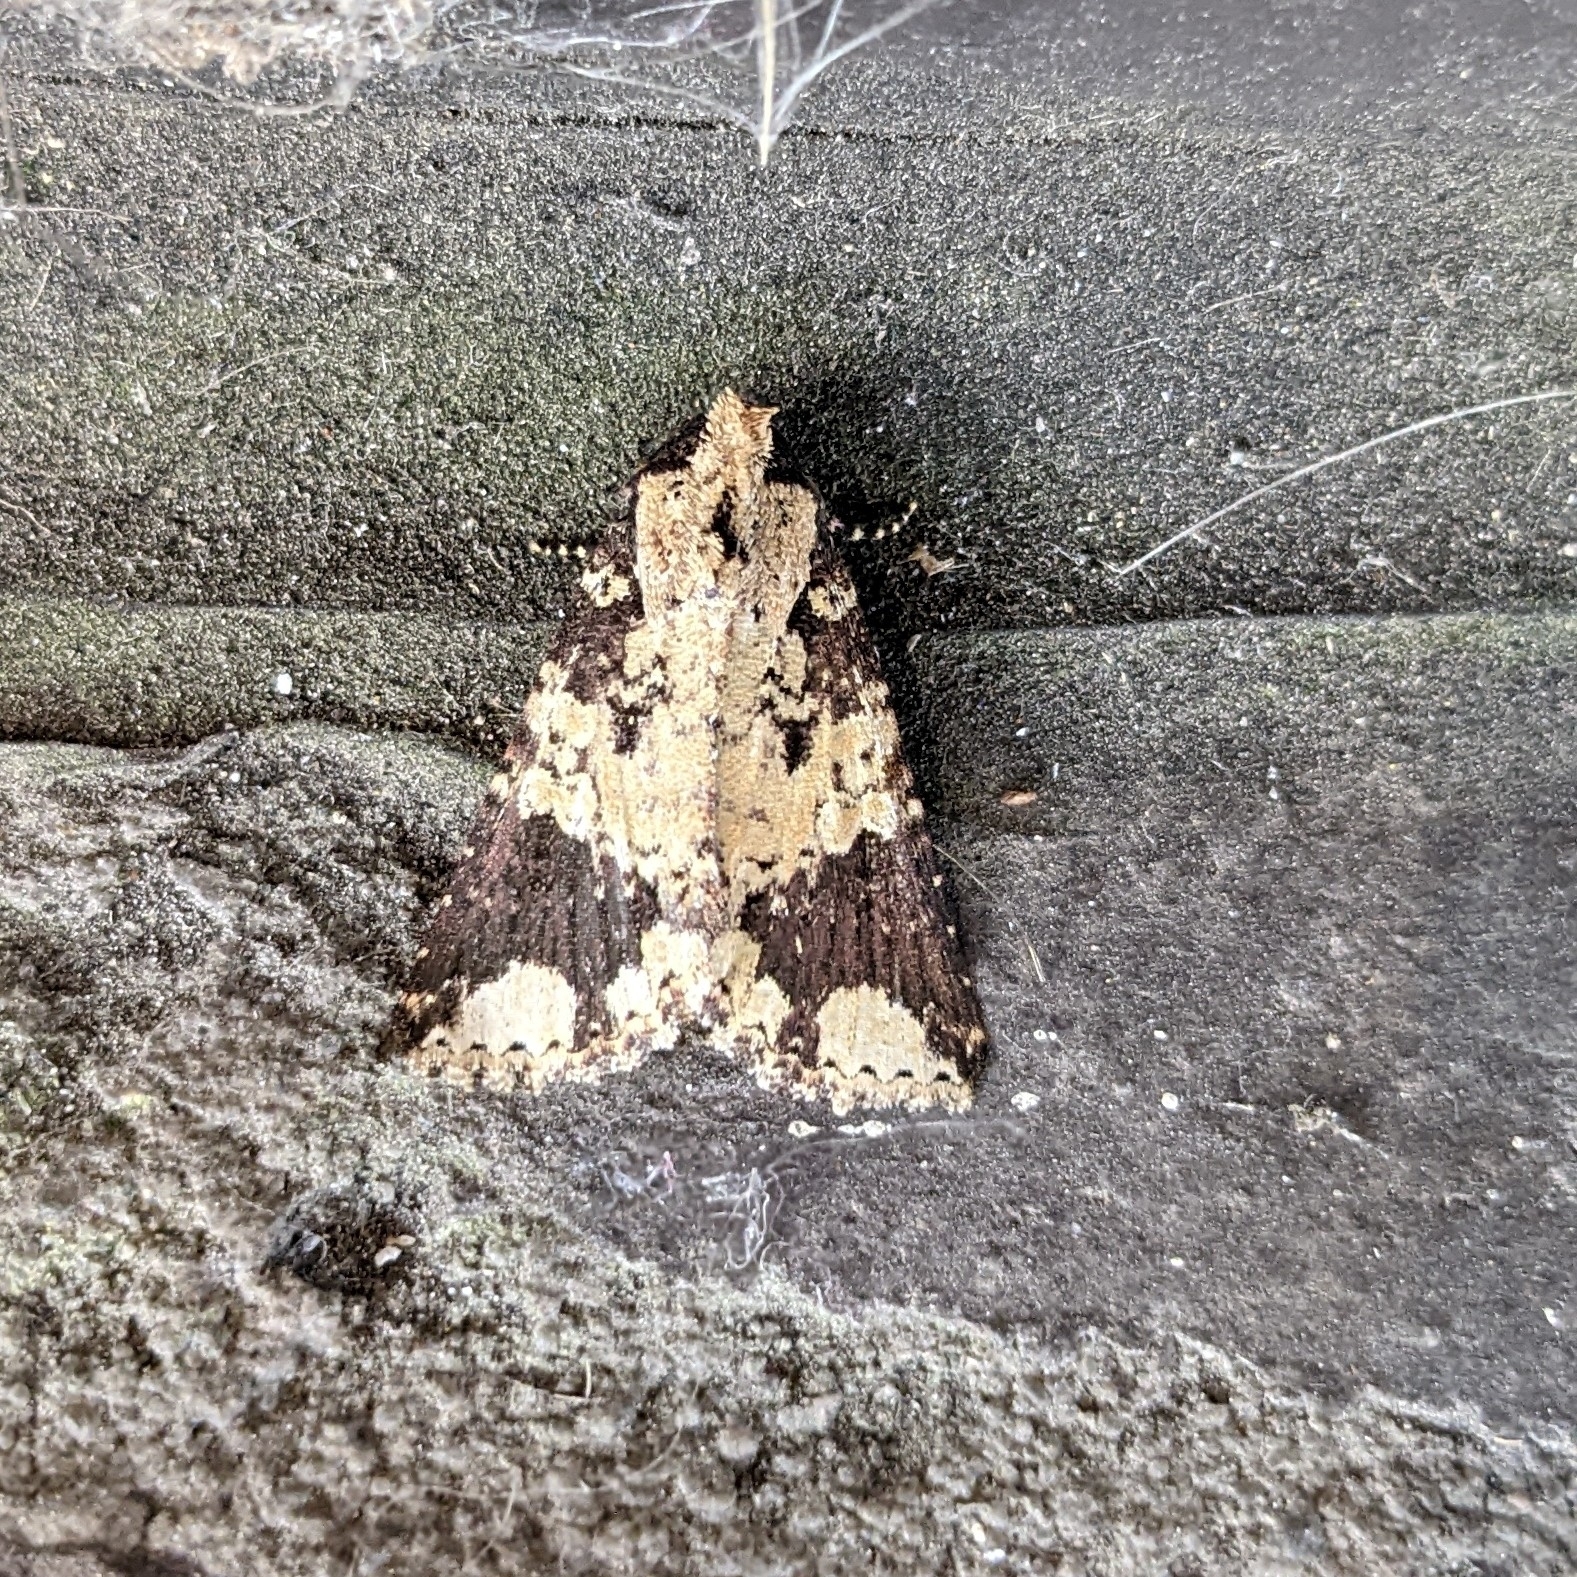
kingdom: Animalia
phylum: Arthropoda
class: Insecta
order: Lepidoptera
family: Noctuidae
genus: Condica
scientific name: Condica confederata
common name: The confederate
